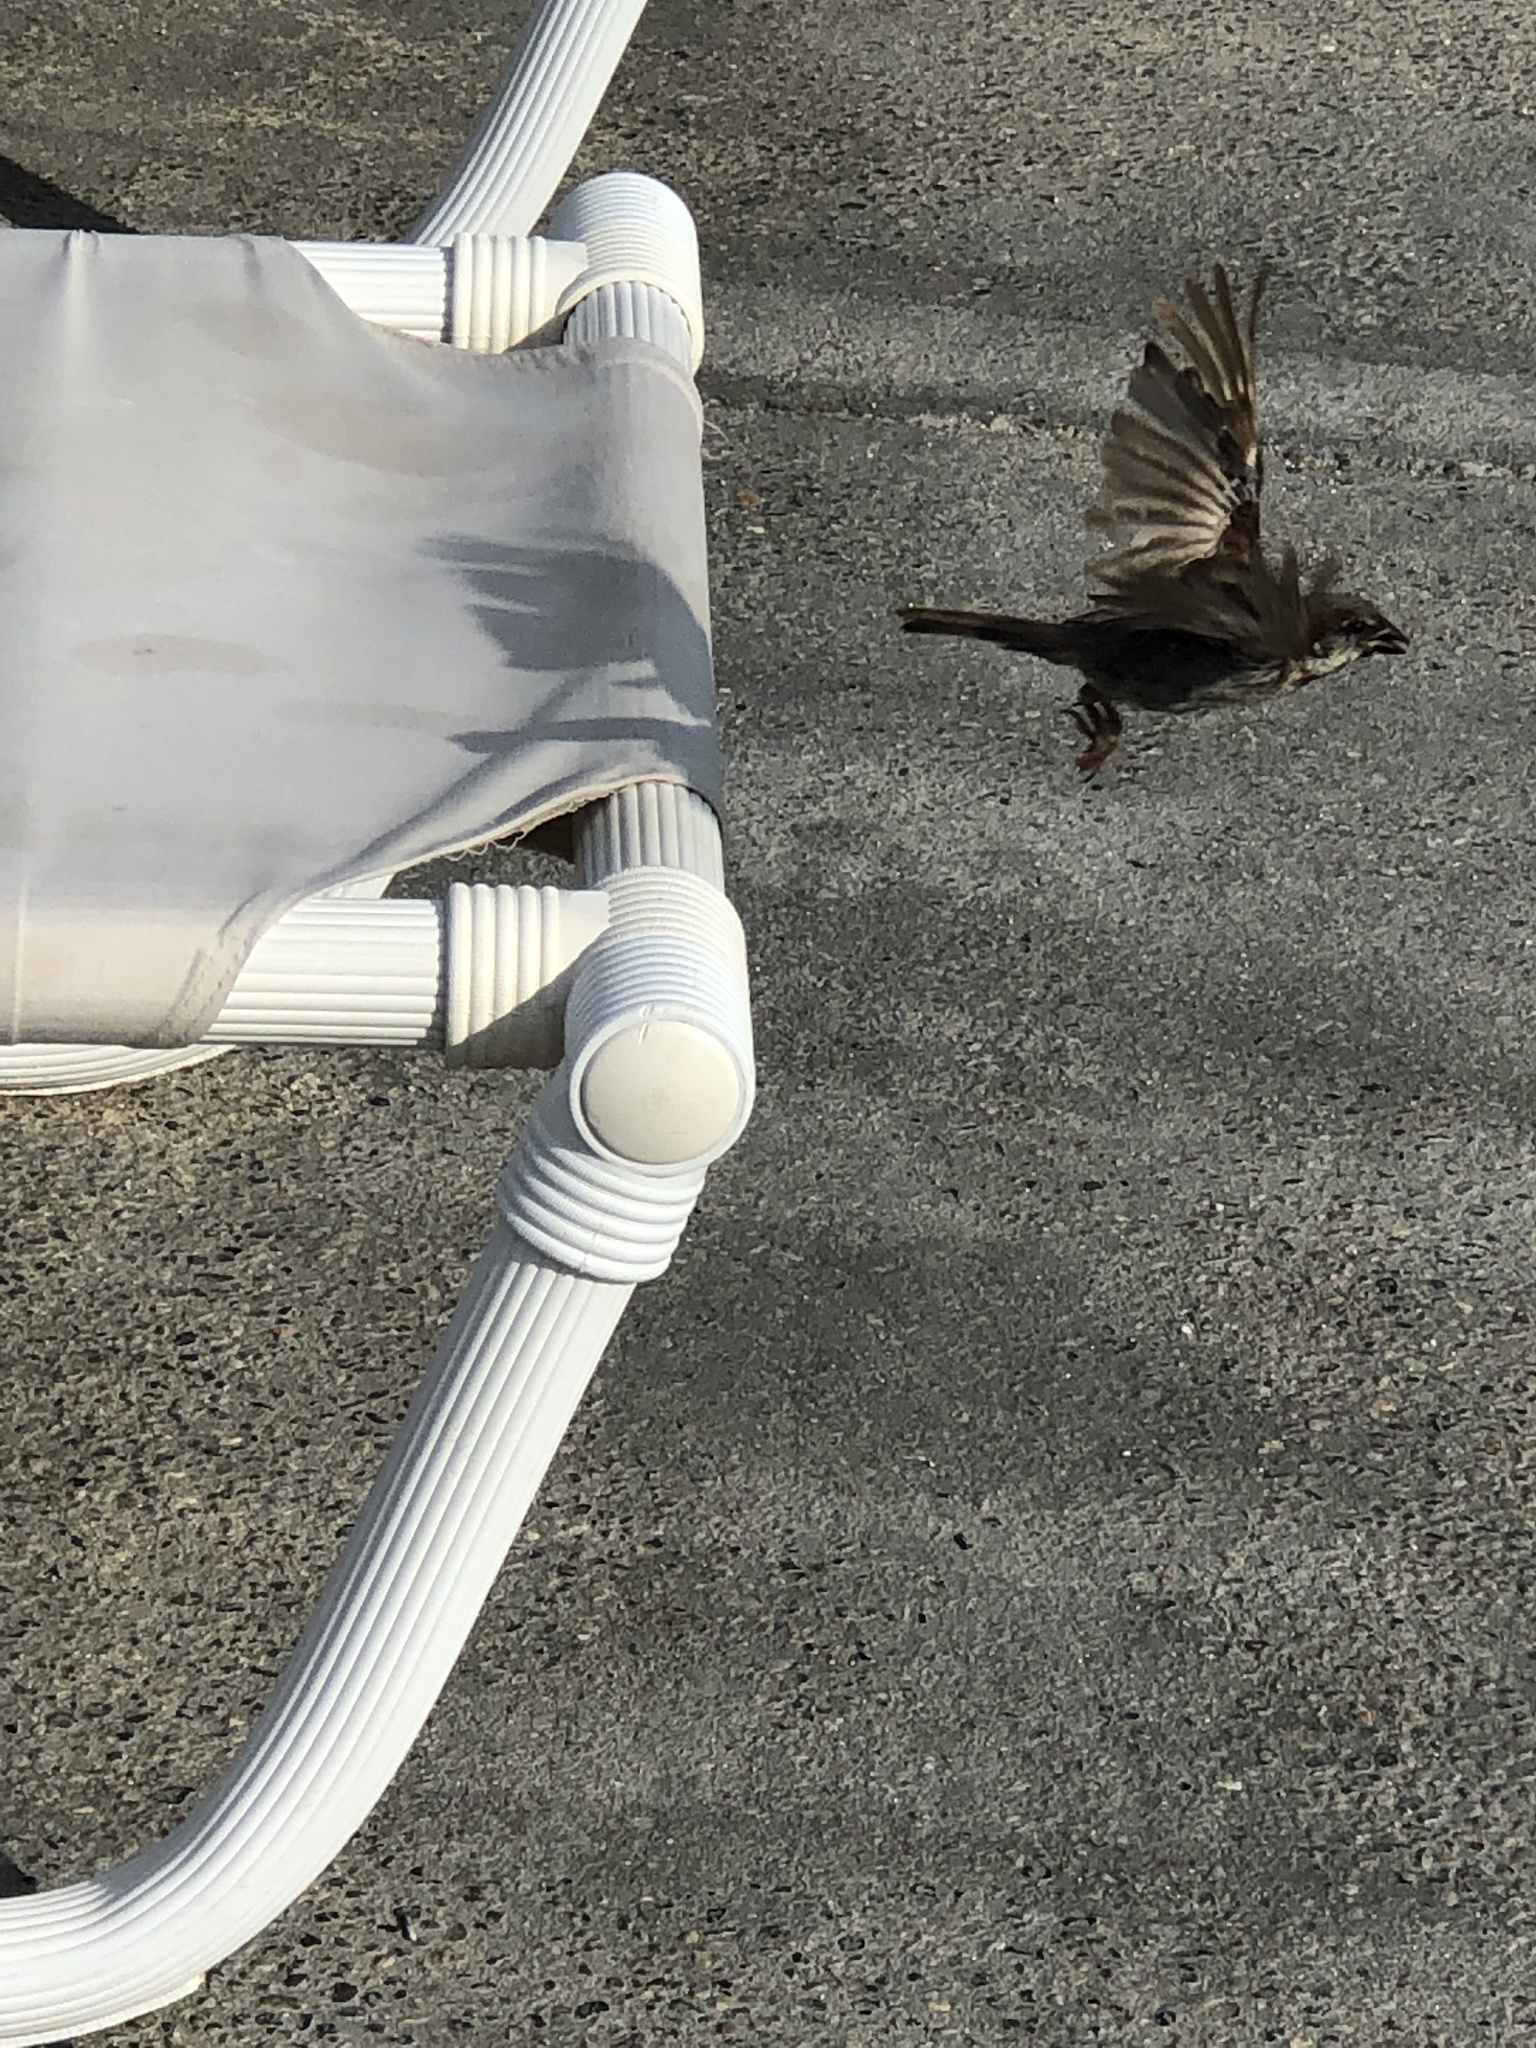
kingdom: Animalia
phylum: Chordata
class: Aves
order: Passeriformes
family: Passeridae
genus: Passer
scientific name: Passer domesticus
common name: House sparrow
